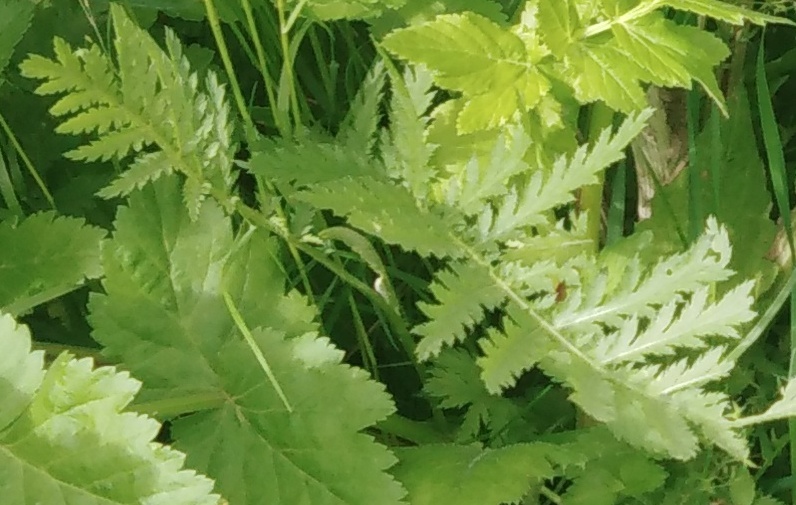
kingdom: Plantae
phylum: Tracheophyta
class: Magnoliopsida
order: Asterales
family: Asteraceae
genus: Tanacetum
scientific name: Tanacetum vulgare
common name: Common tansy
